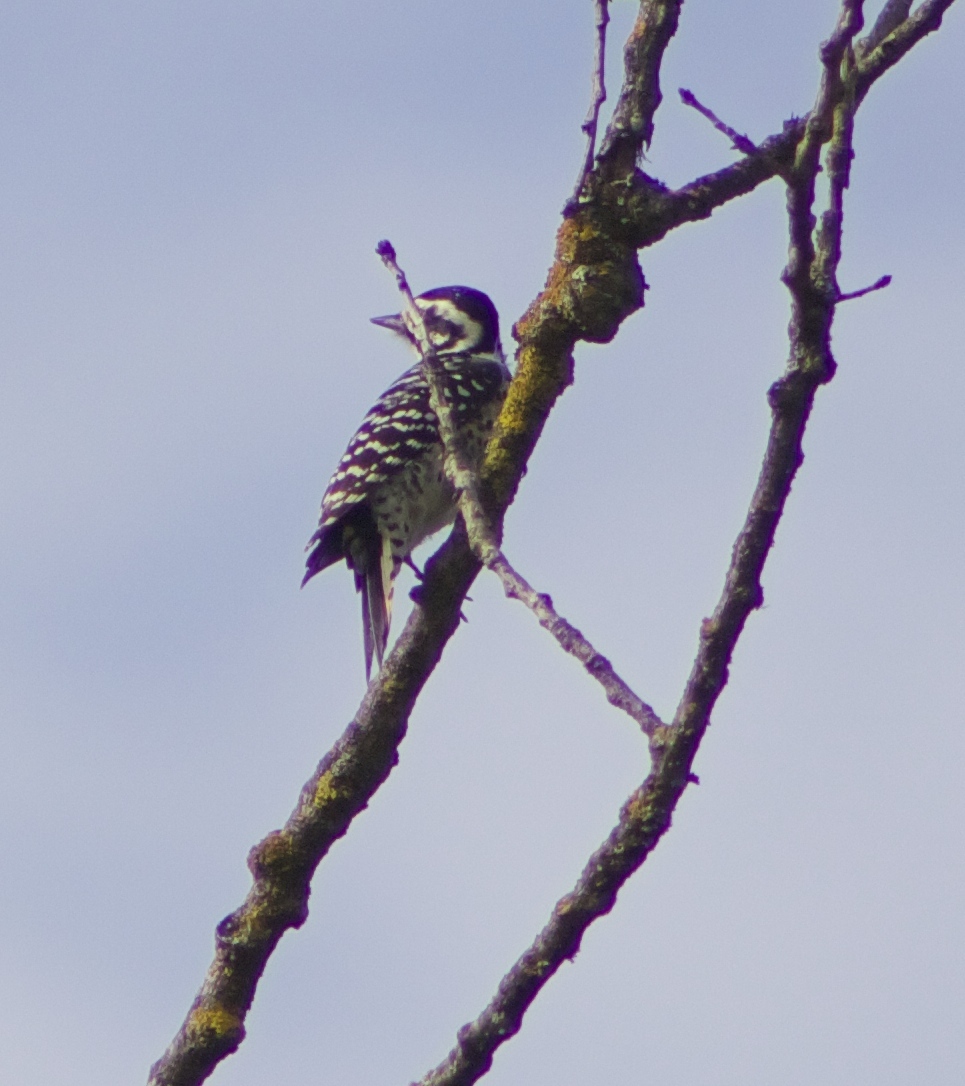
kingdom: Animalia
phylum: Chordata
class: Aves
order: Piciformes
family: Picidae
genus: Dryobates
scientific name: Dryobates nuttallii
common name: Nuttall's woodpecker
